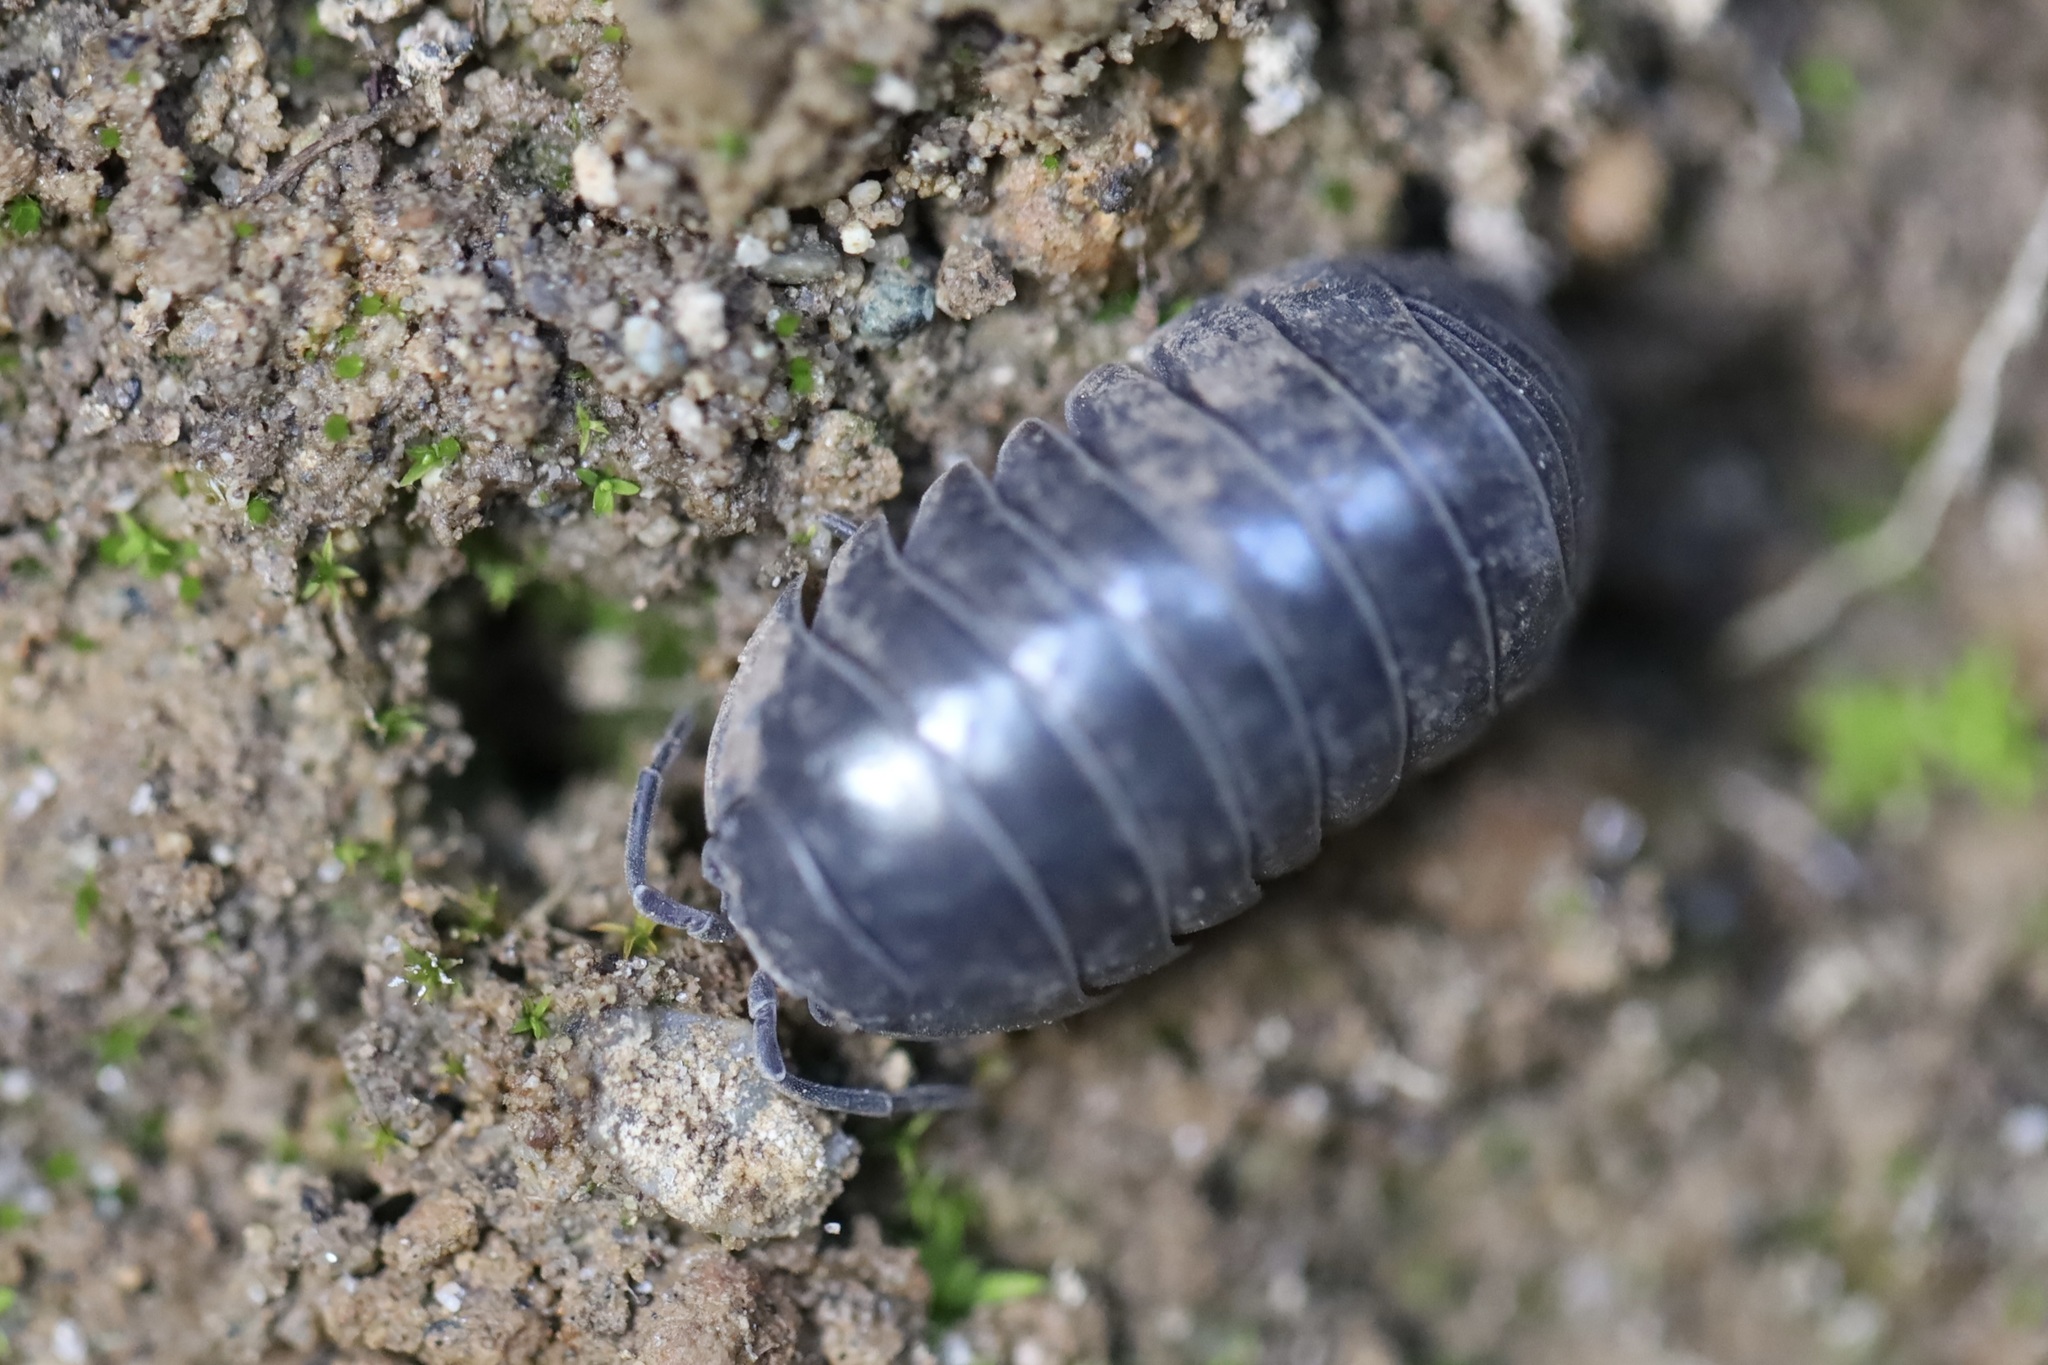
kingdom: Animalia
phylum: Arthropoda
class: Malacostraca
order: Isopoda
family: Armadillidiidae
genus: Armadillidium
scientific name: Armadillidium vulgare
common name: Common pill woodlouse
